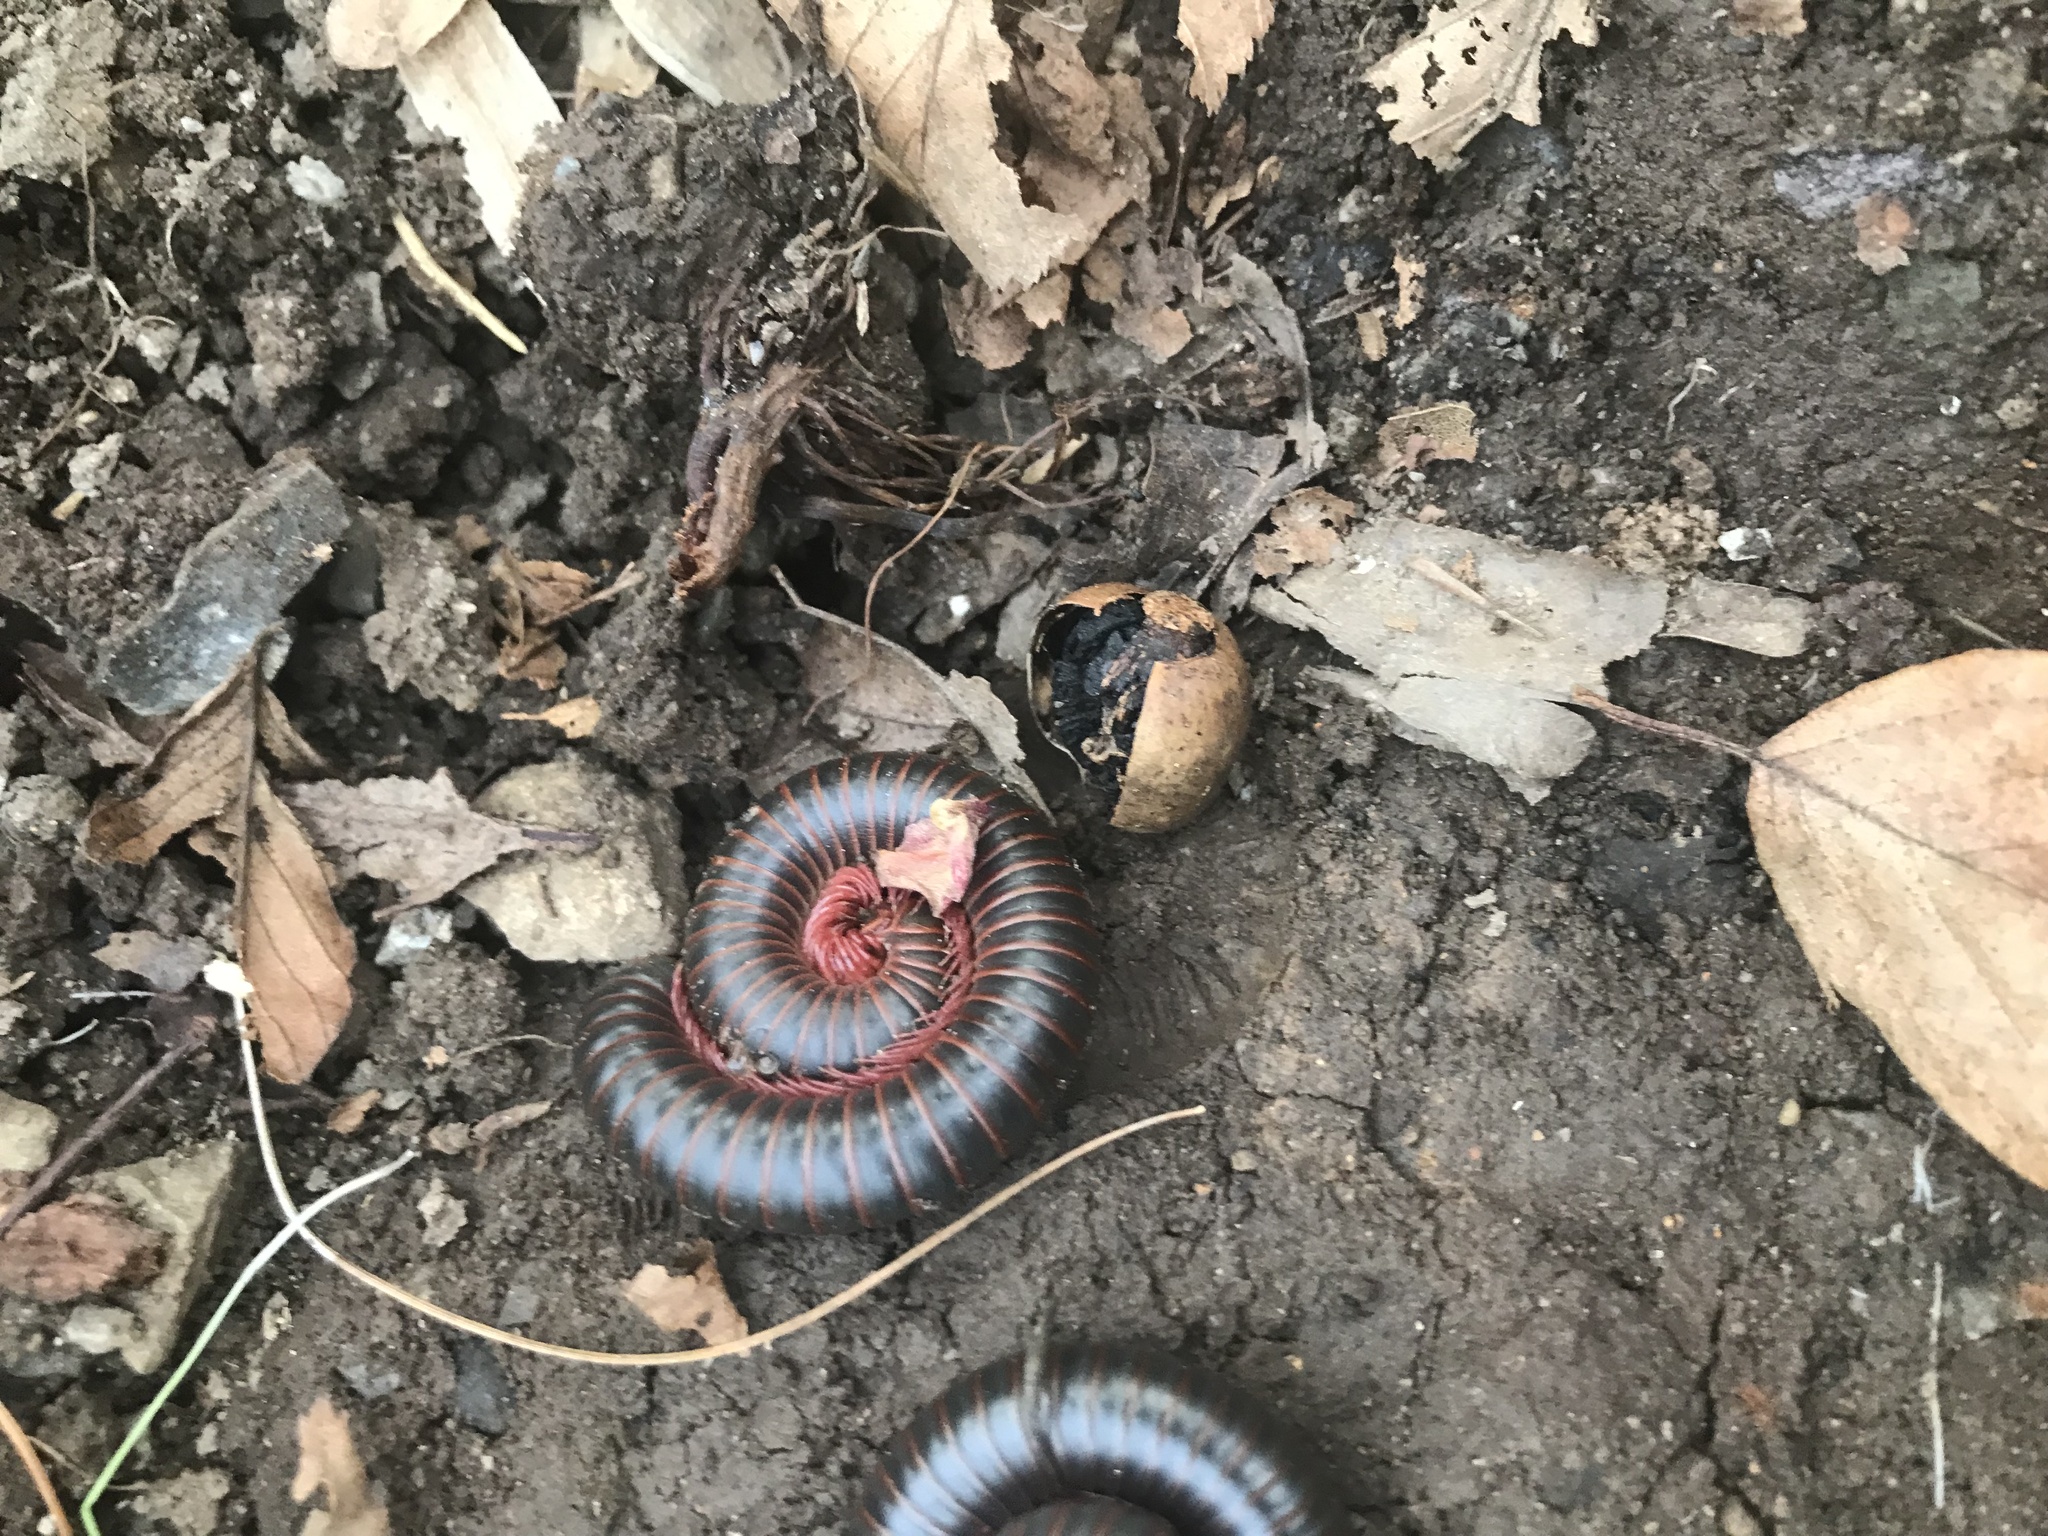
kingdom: Animalia
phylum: Arthropoda
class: Diplopoda
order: Spirobolida
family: Spirobolidae
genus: Narceus
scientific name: Narceus
